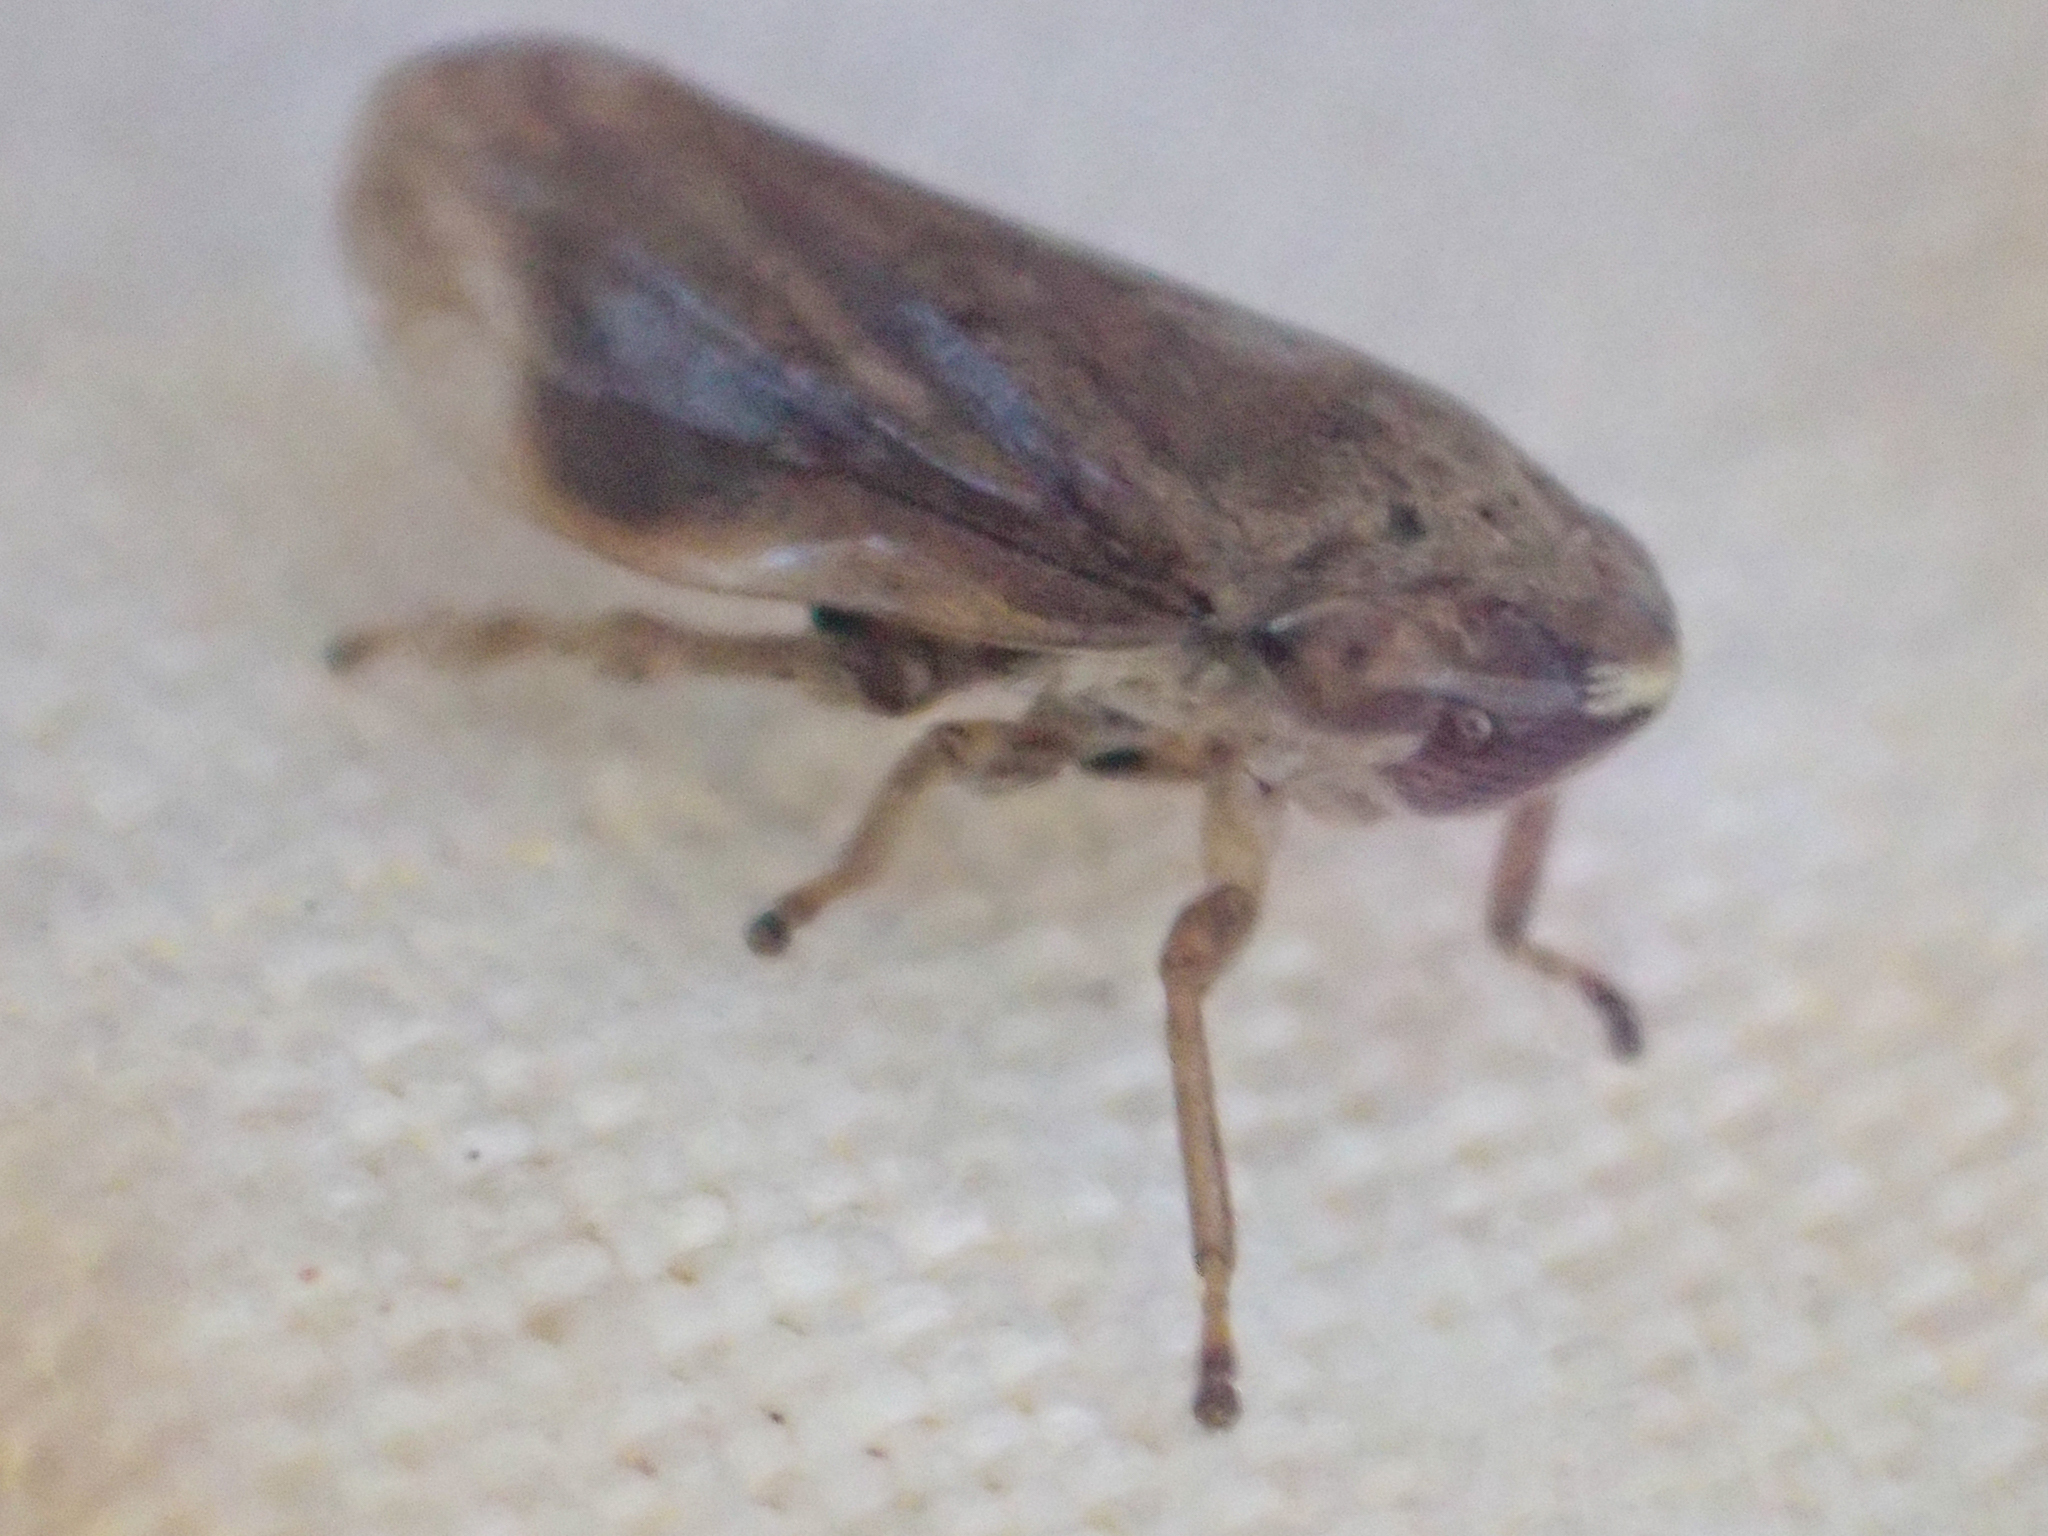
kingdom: Animalia
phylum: Arthropoda
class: Insecta
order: Hemiptera
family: Aphrophoridae
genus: Philaenus
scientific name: Philaenus spumarius
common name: Meadow spittlebug
